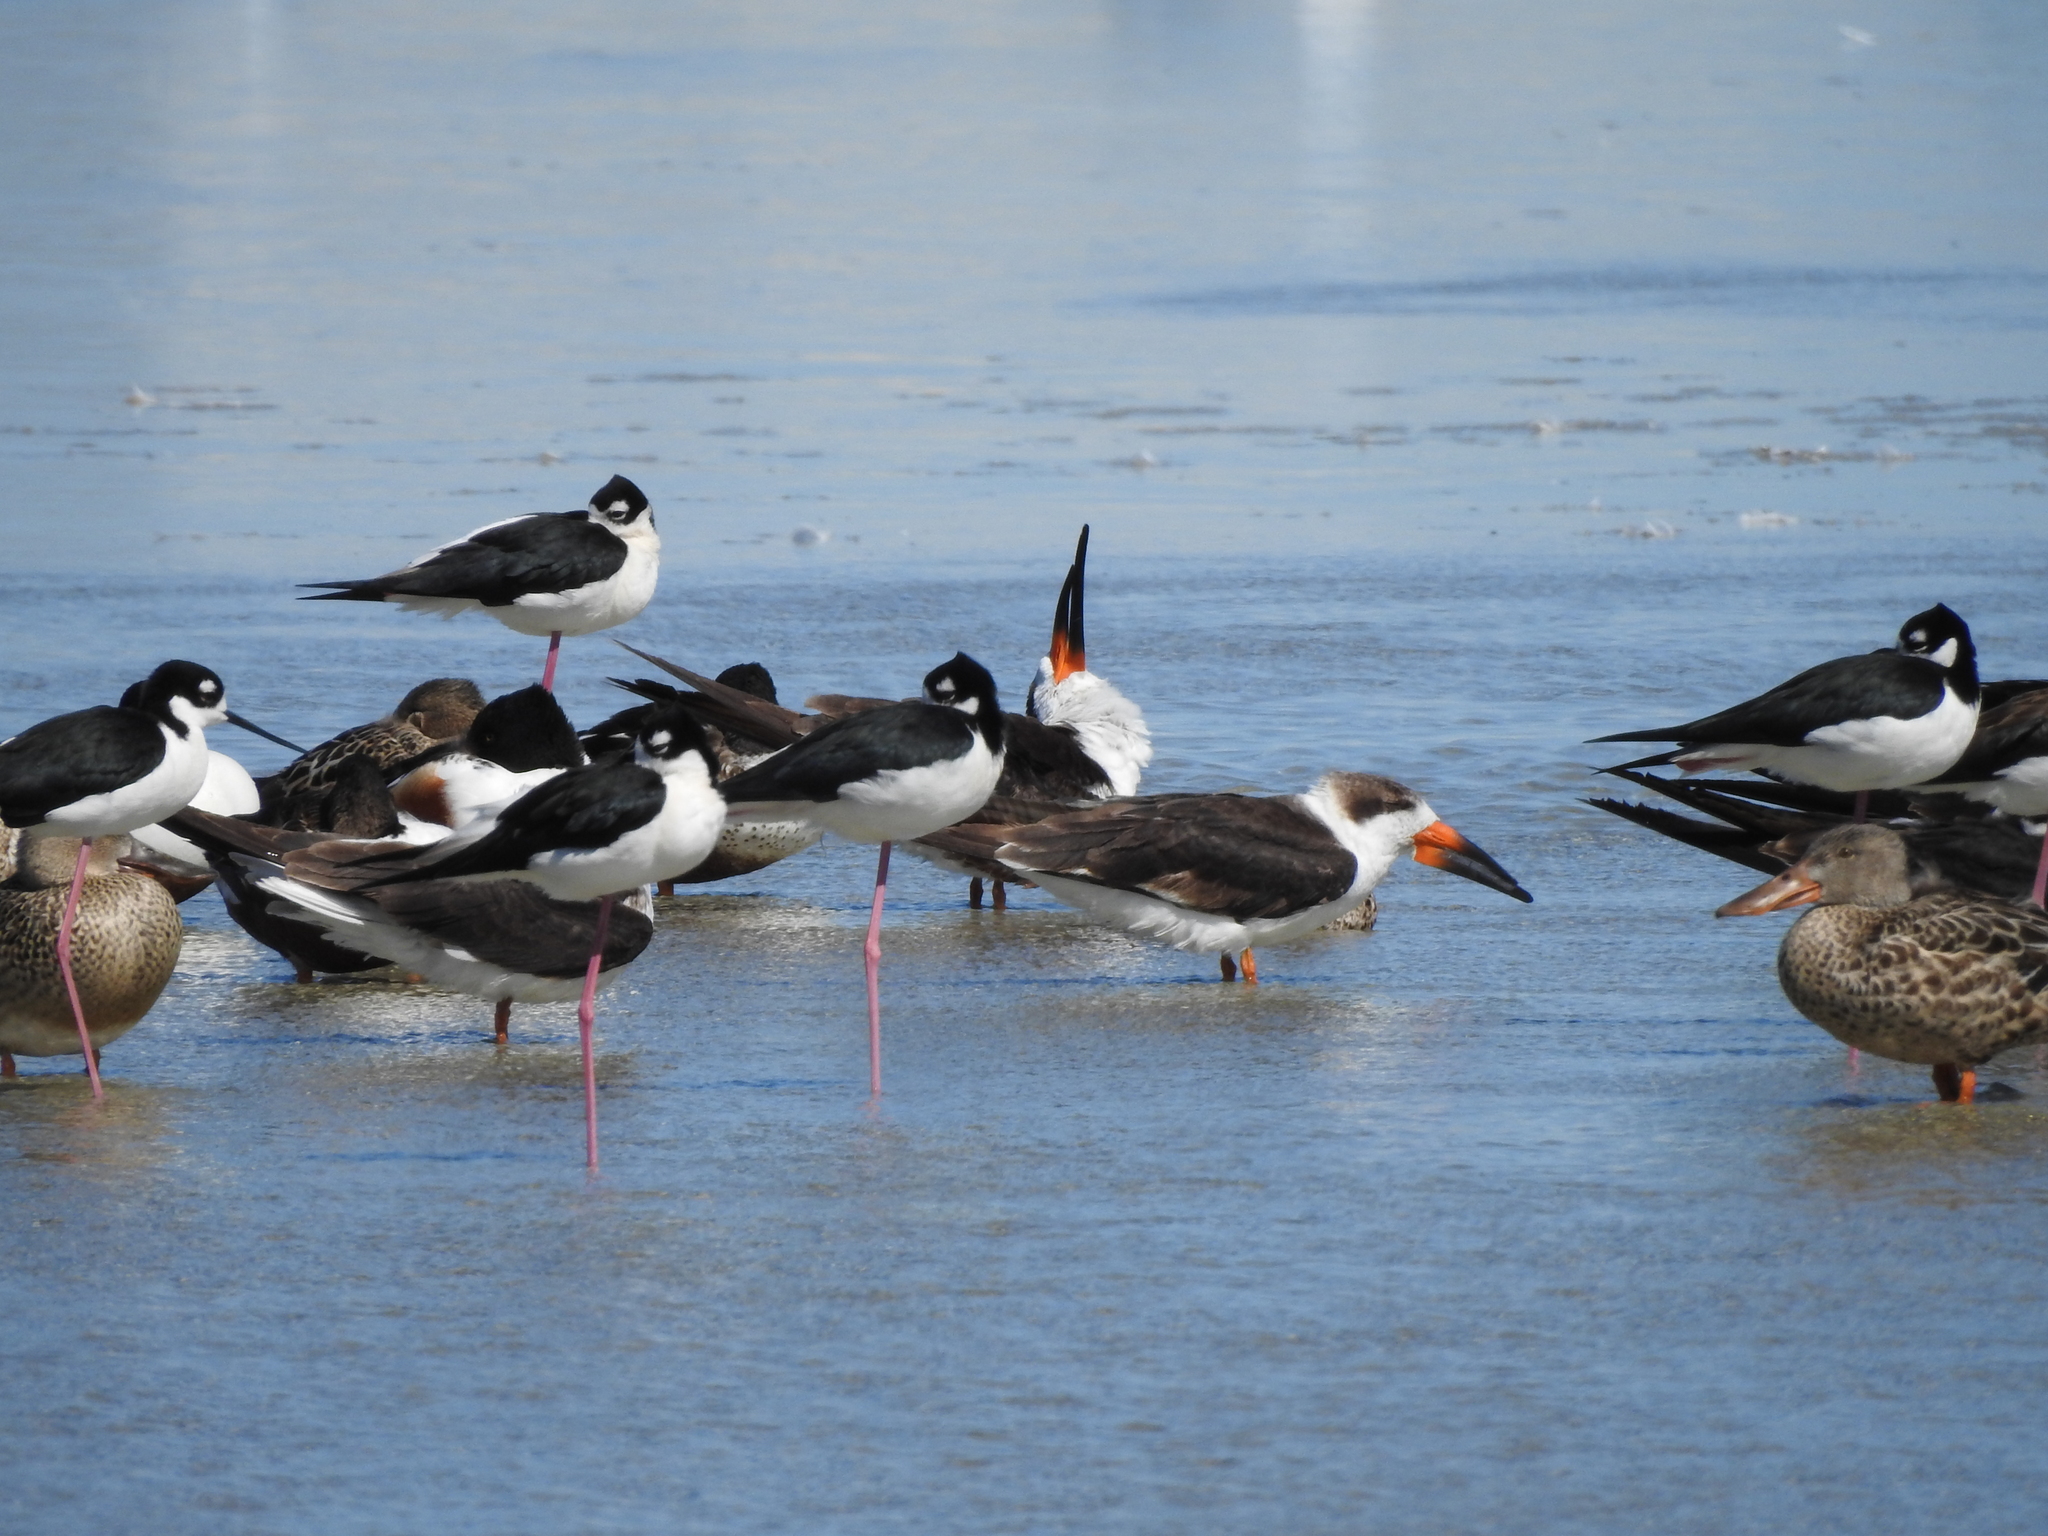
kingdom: Animalia
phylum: Chordata
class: Aves
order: Charadriiformes
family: Laridae
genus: Rynchops
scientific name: Rynchops niger
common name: Black skimmer
